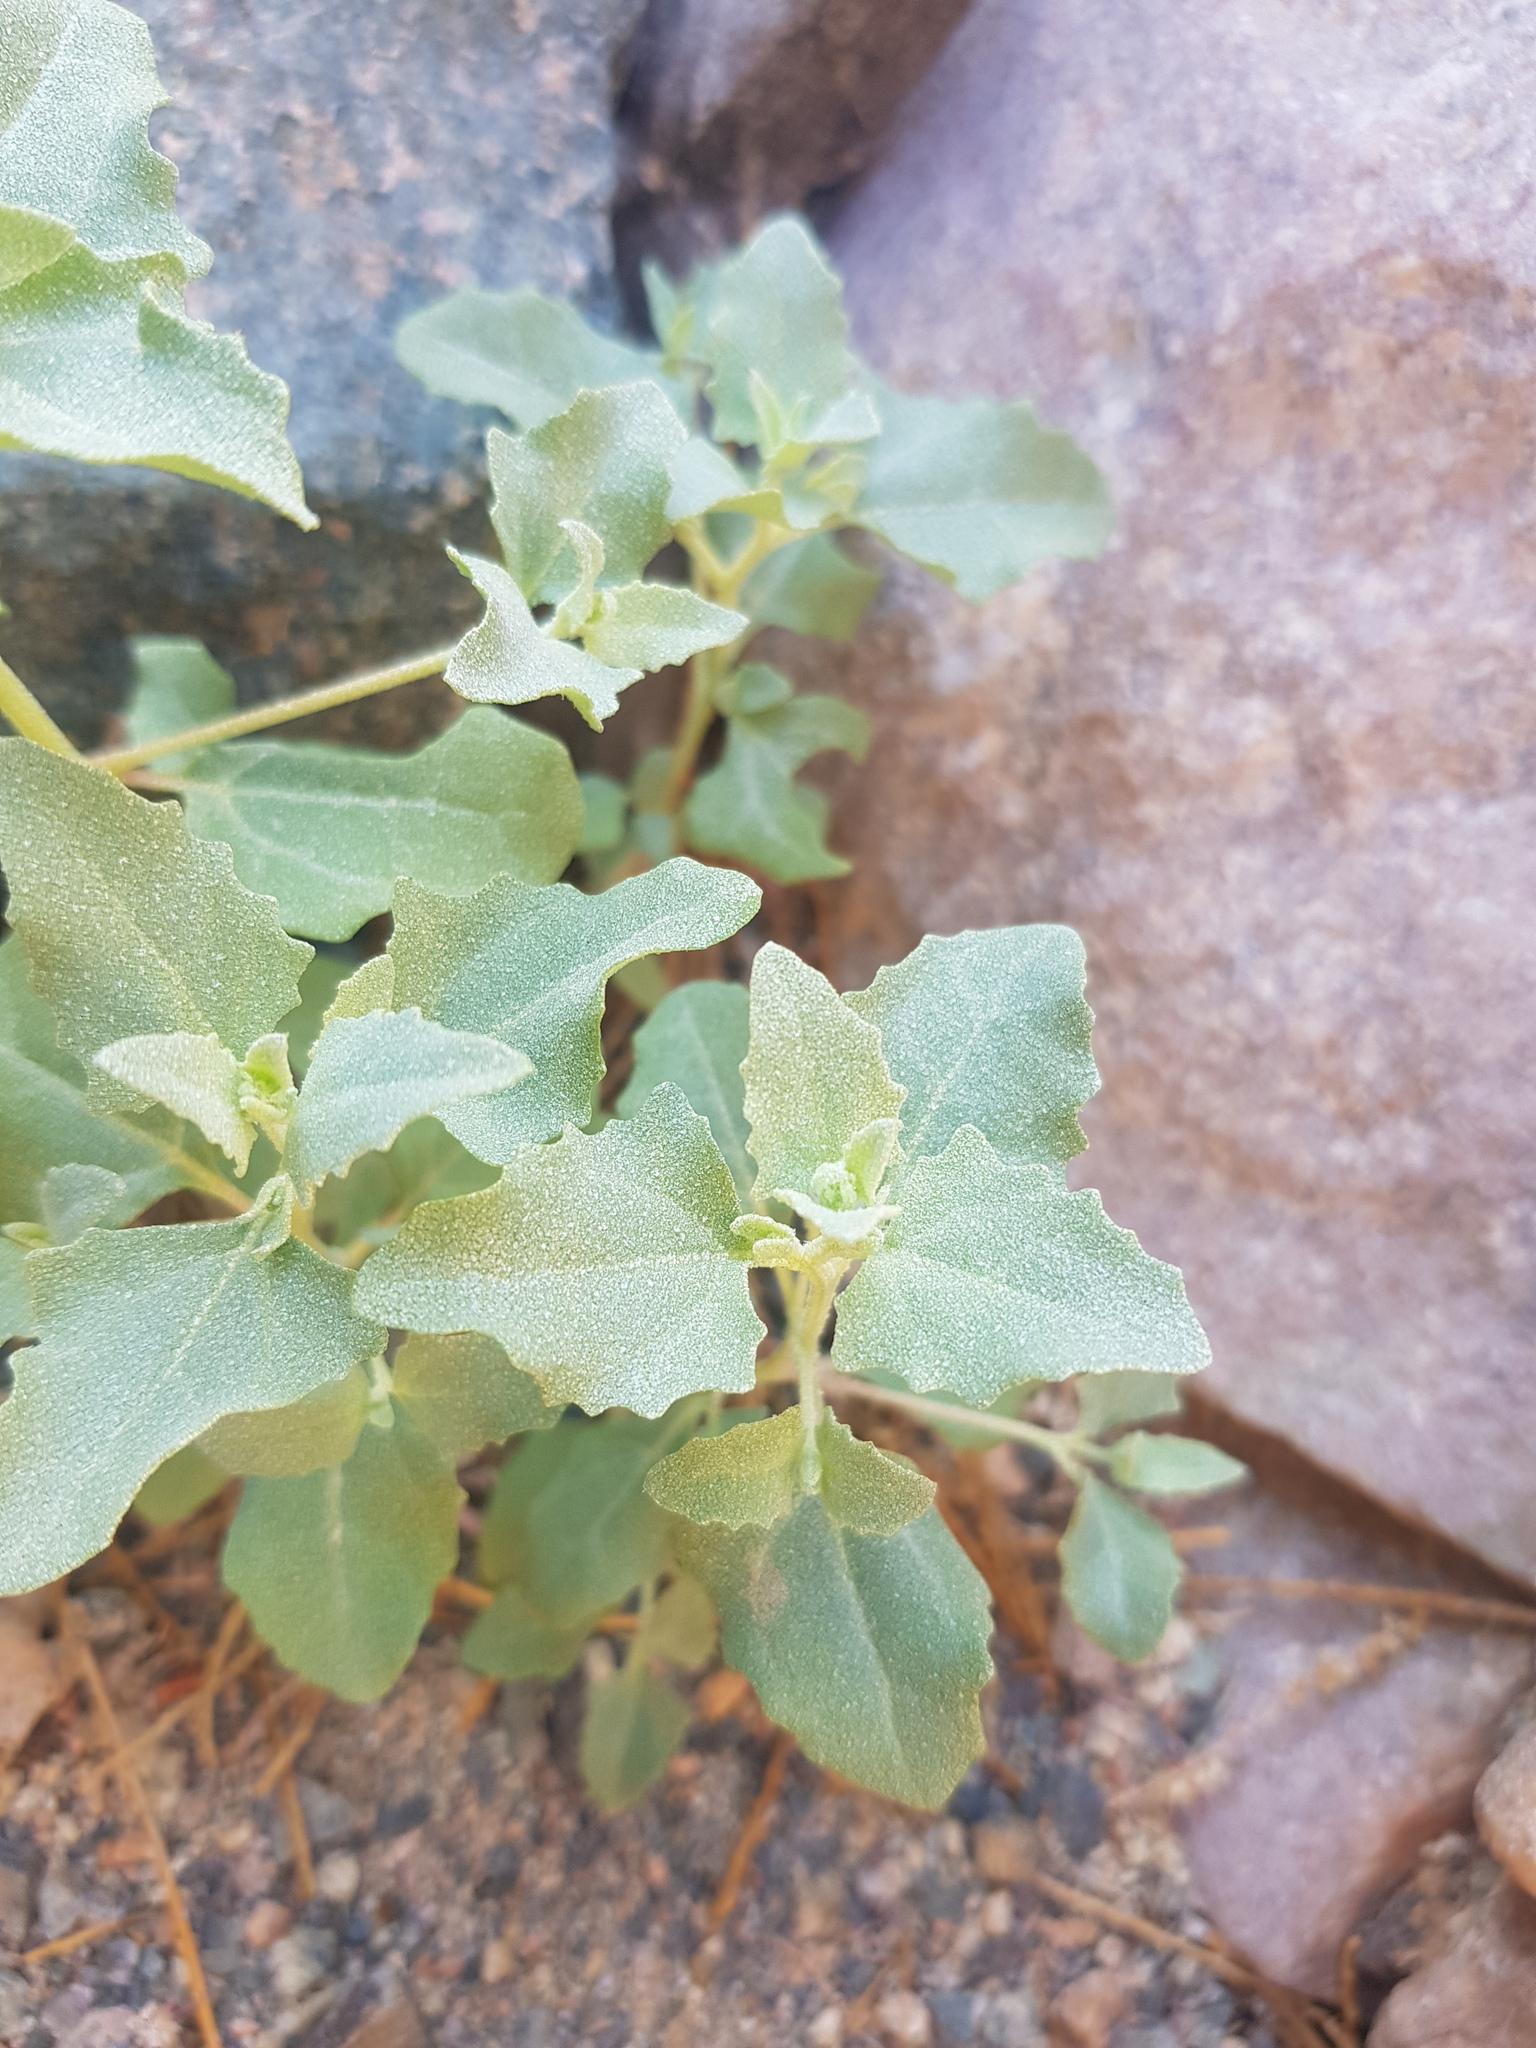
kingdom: Plantae
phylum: Tracheophyta
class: Magnoliopsida
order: Caryophyllales
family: Amaranthaceae
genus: Atriplex
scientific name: Atriplex sibirica
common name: Siberian saltbush
